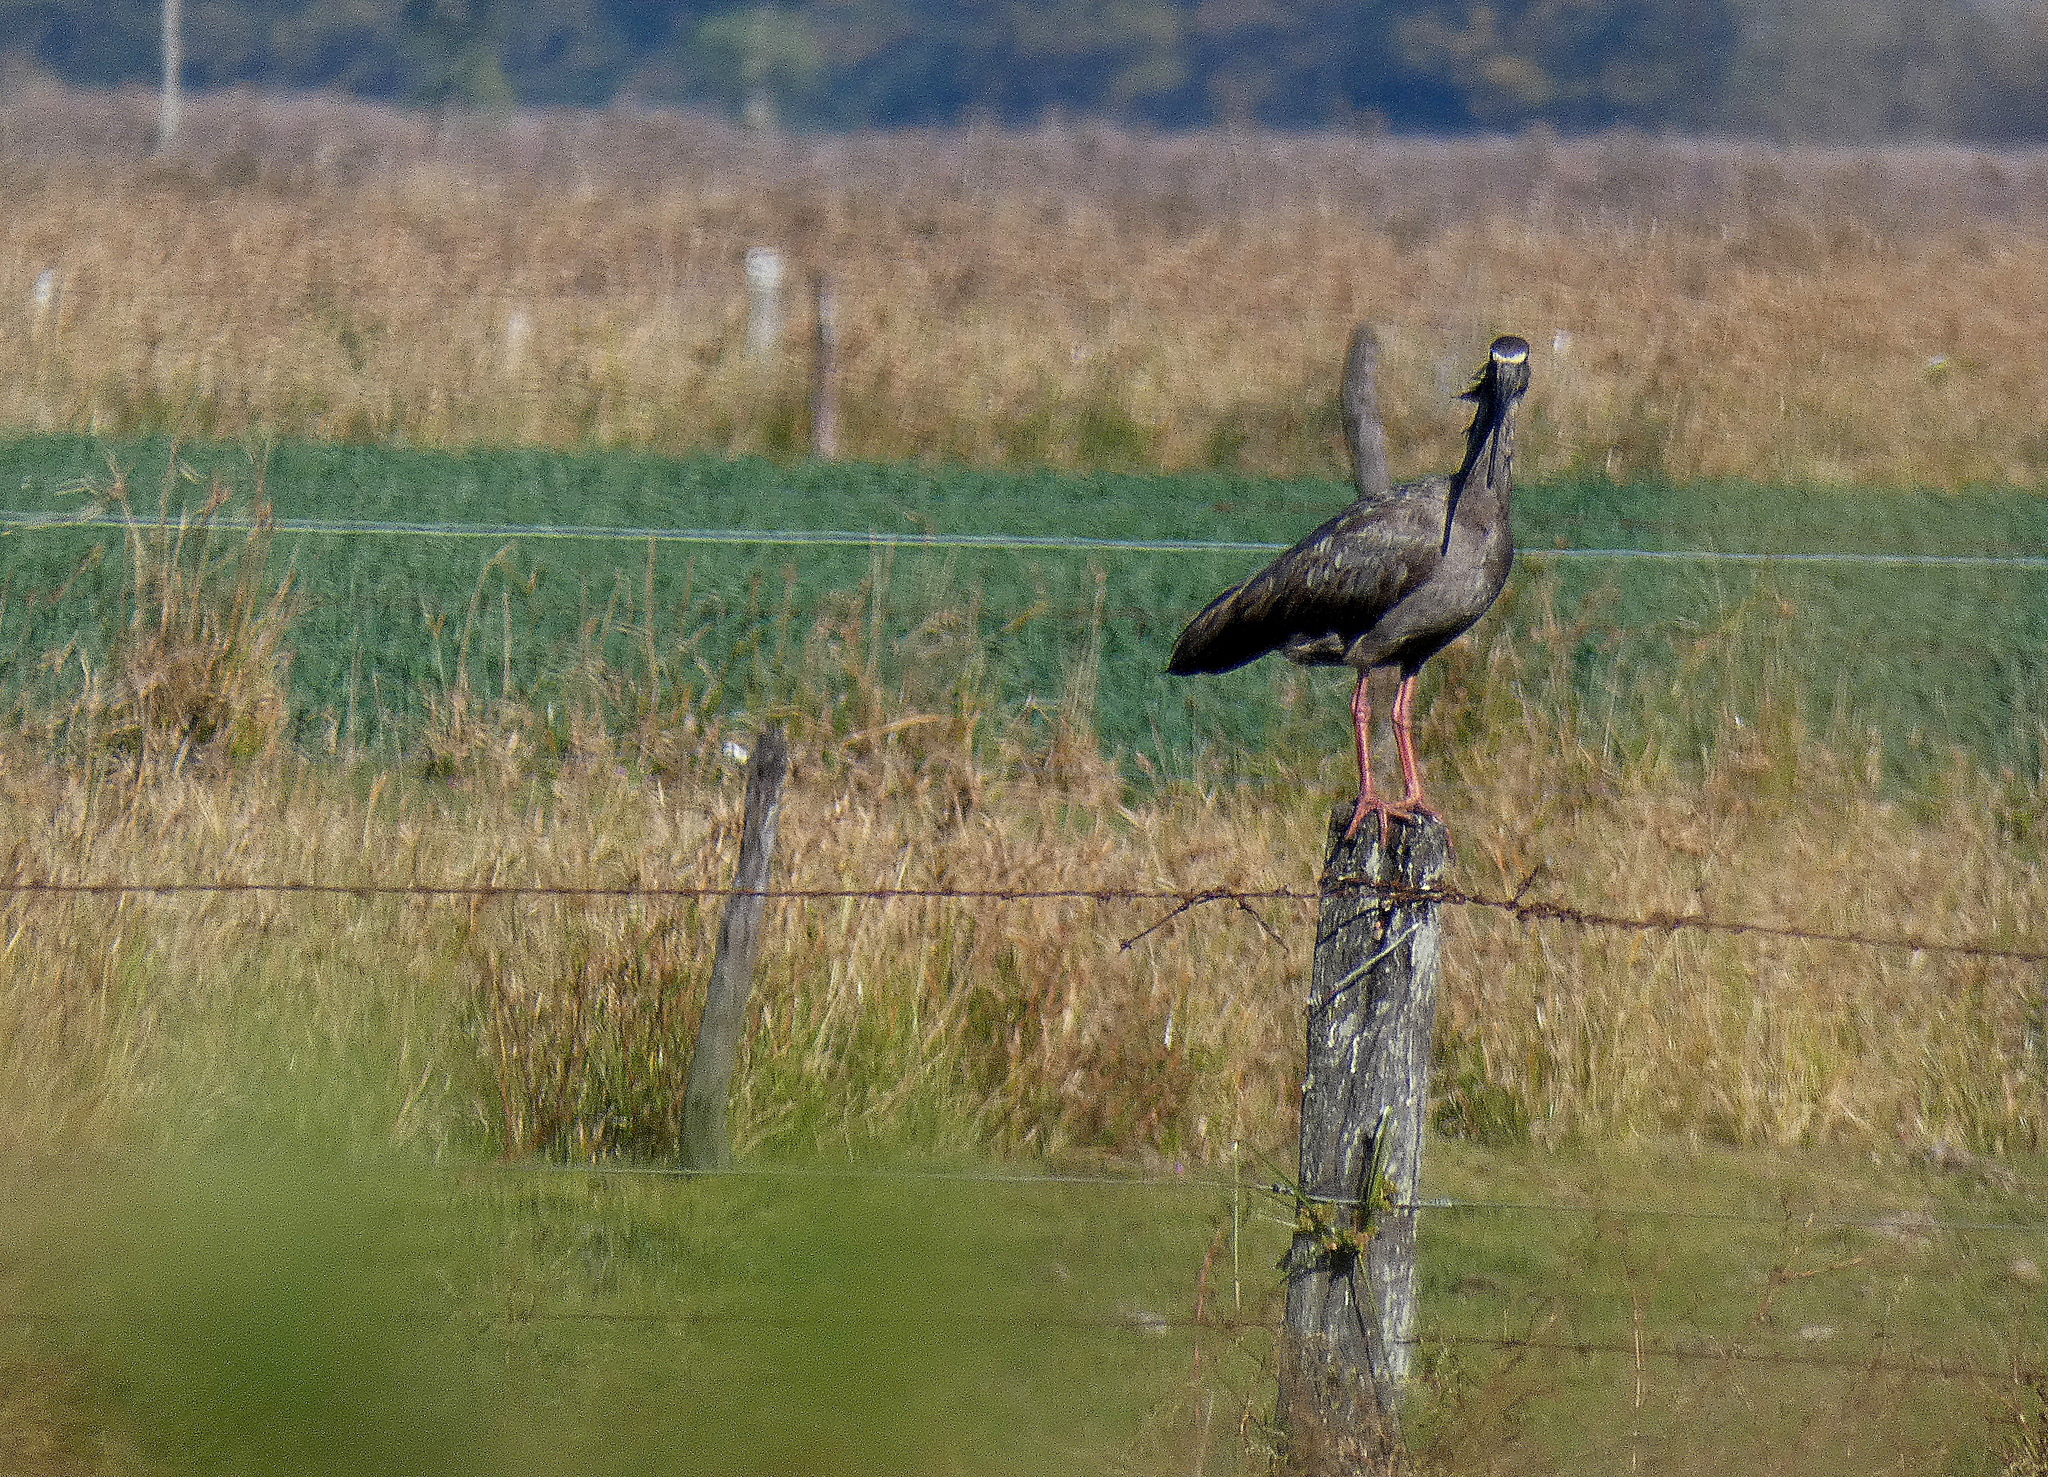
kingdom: Animalia
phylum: Chordata
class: Aves
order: Pelecaniformes
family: Threskiornithidae
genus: Theristicus
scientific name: Theristicus caerulescens
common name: Plumbeous ibis
